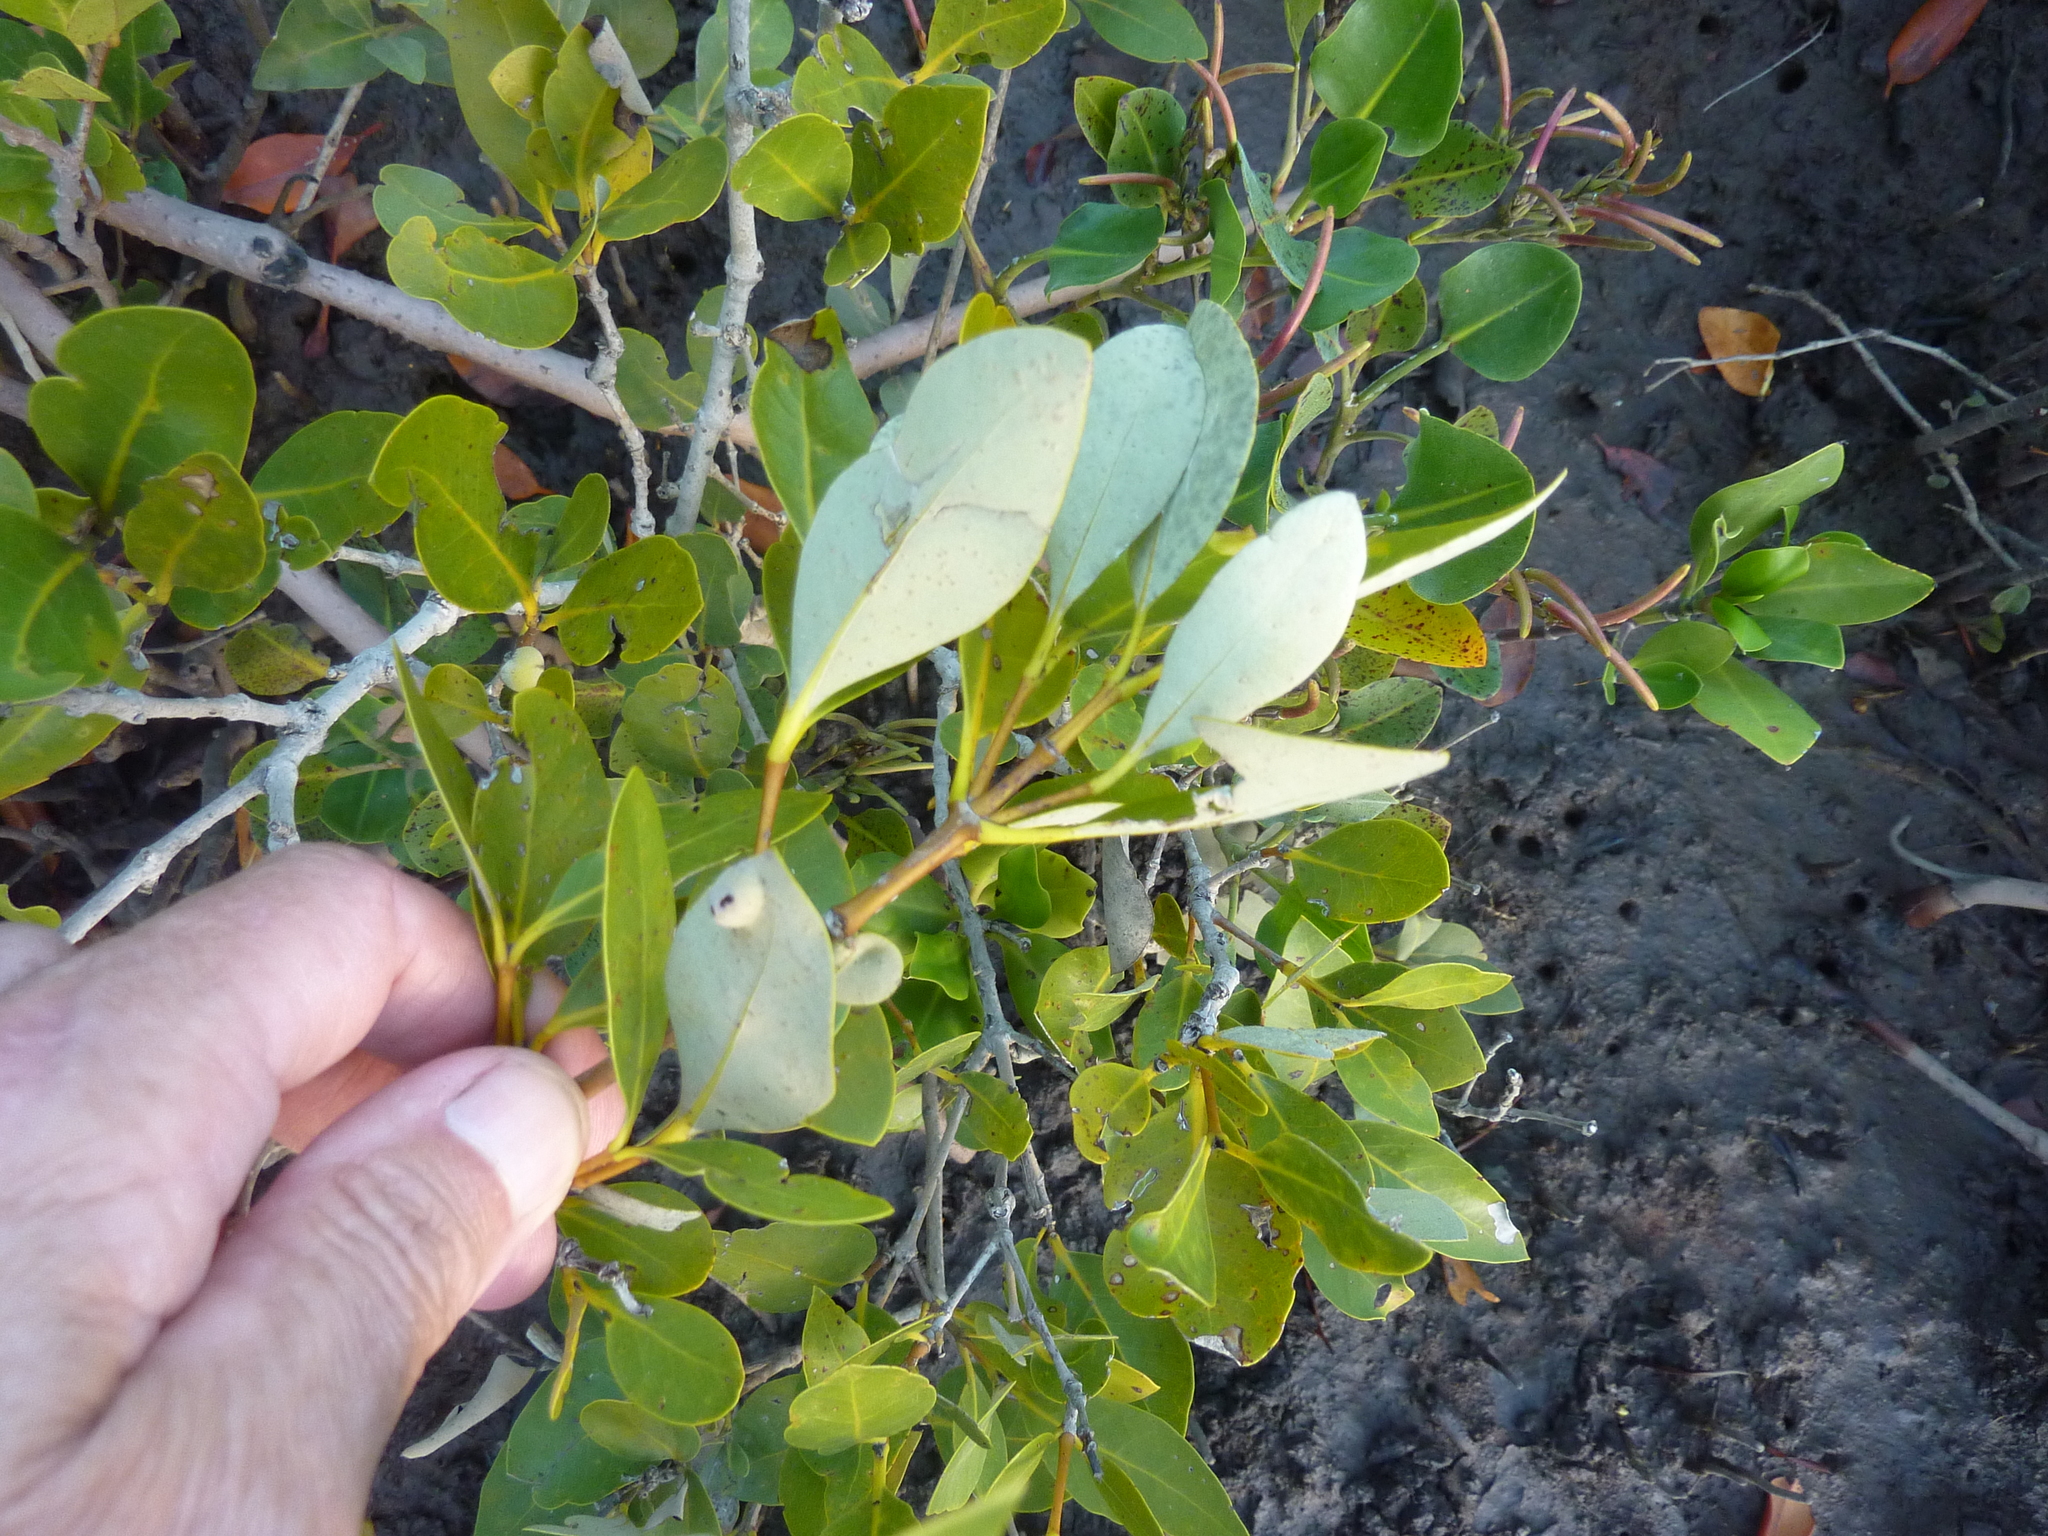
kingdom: Plantae
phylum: Tracheophyta
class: Magnoliopsida
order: Lamiales
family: Acanthaceae
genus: Avicennia
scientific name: Avicennia marina
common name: Gray mangrove
